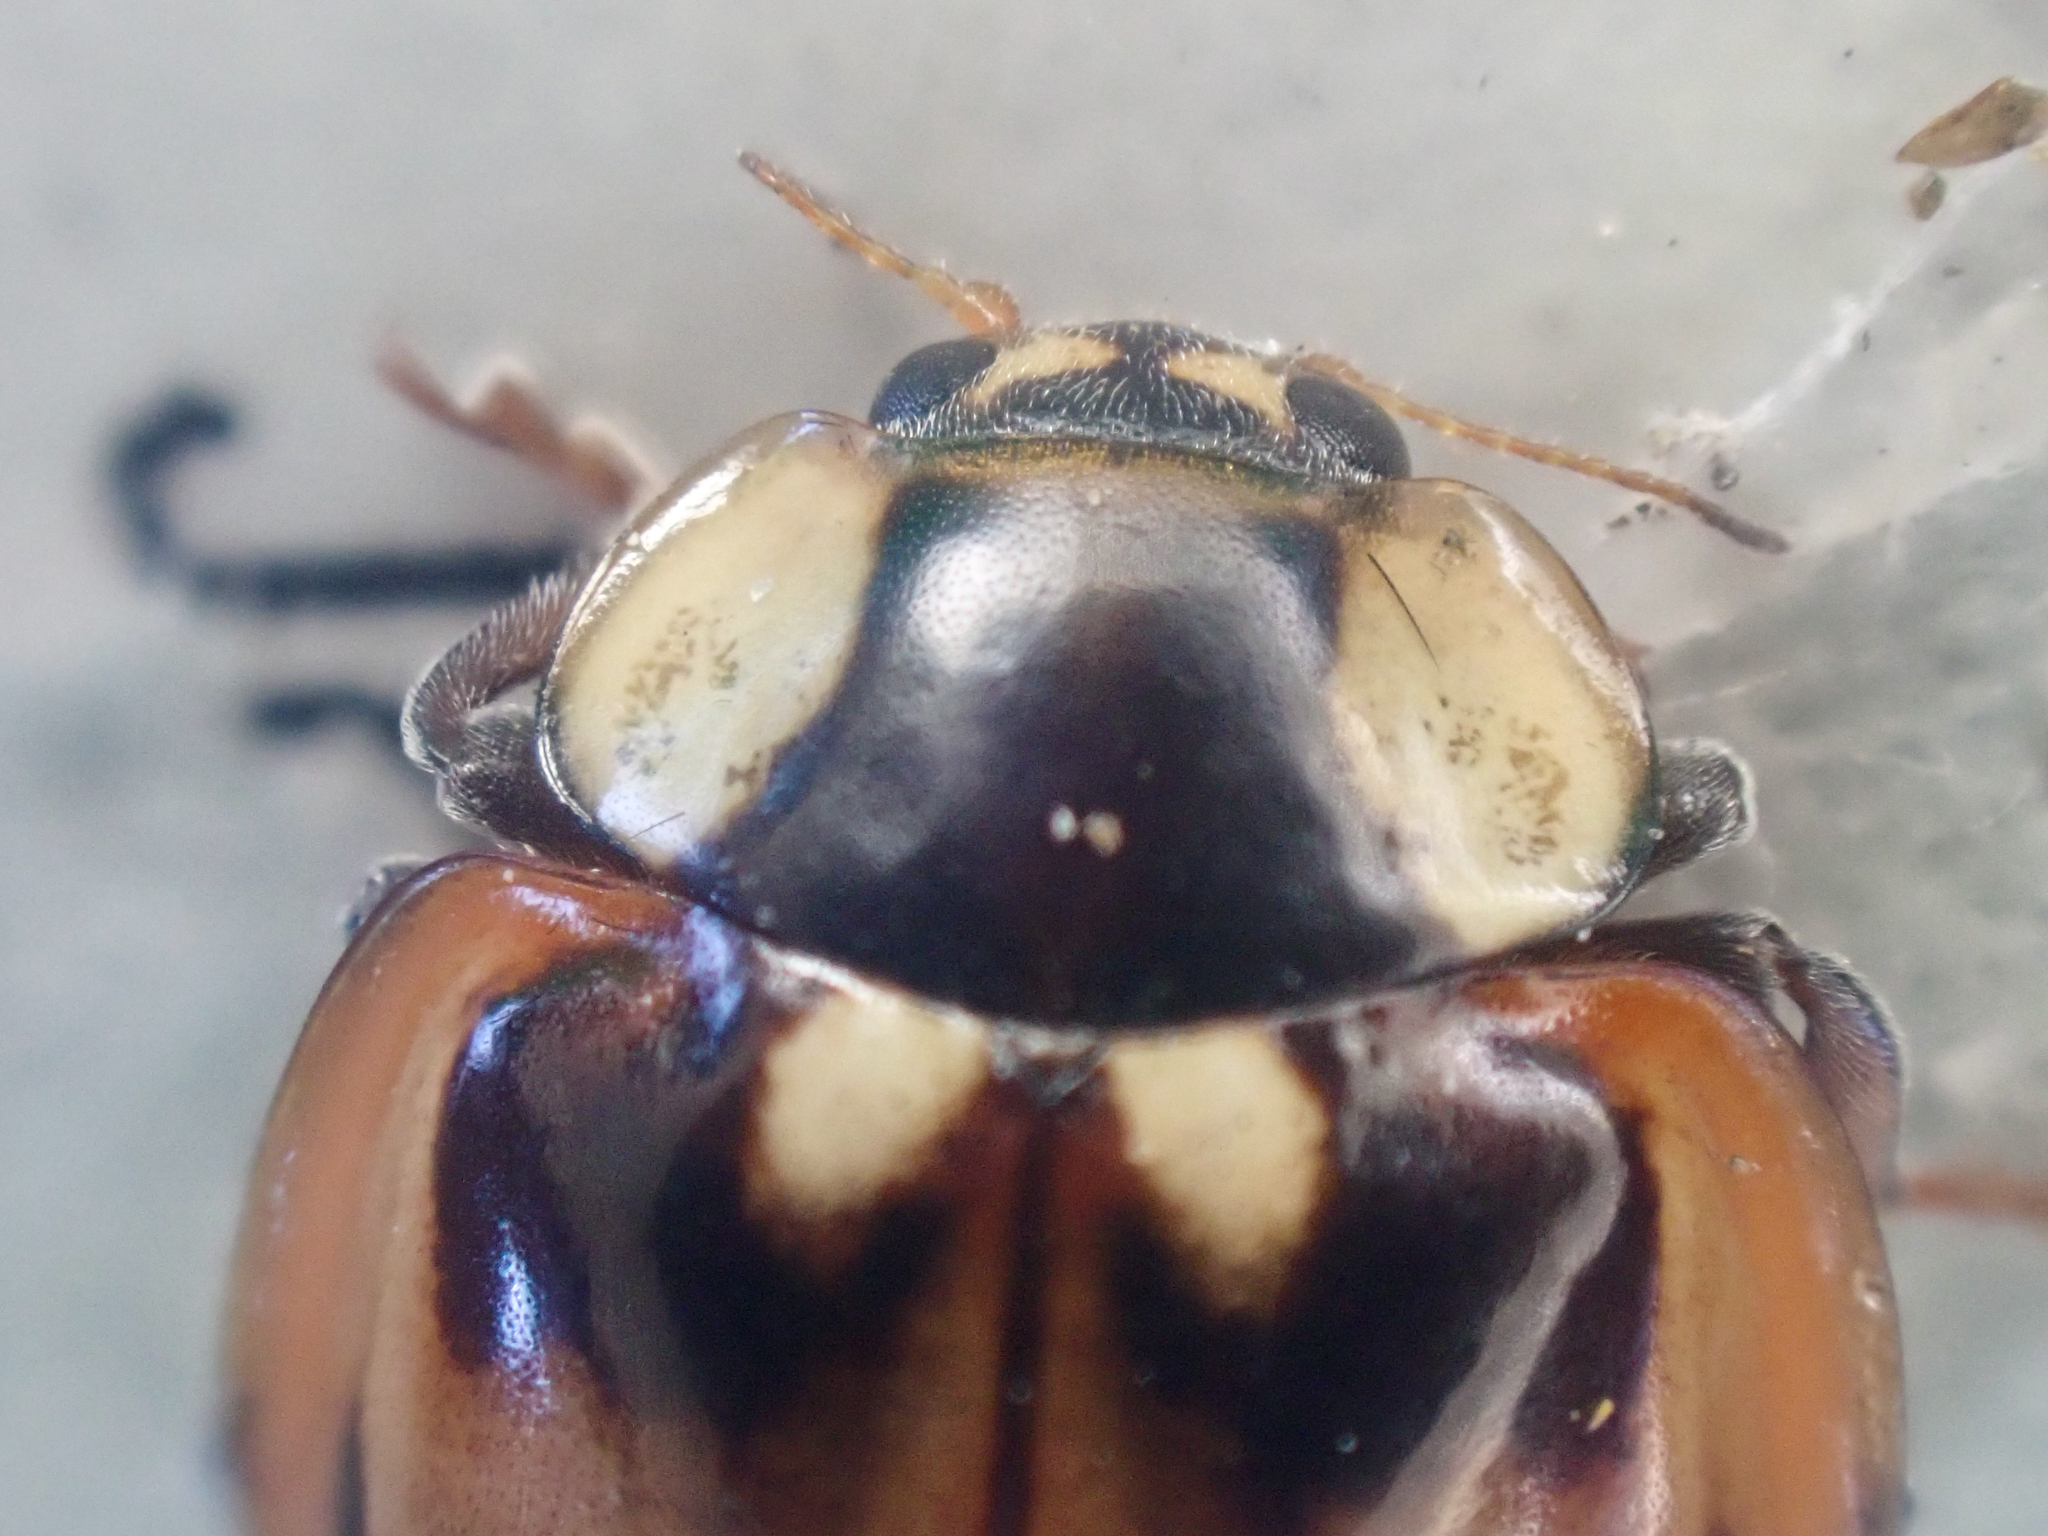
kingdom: Animalia
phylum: Arthropoda
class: Insecta
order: Coleoptera
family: Coccinellidae
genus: Myzia
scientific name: Myzia subvittata
